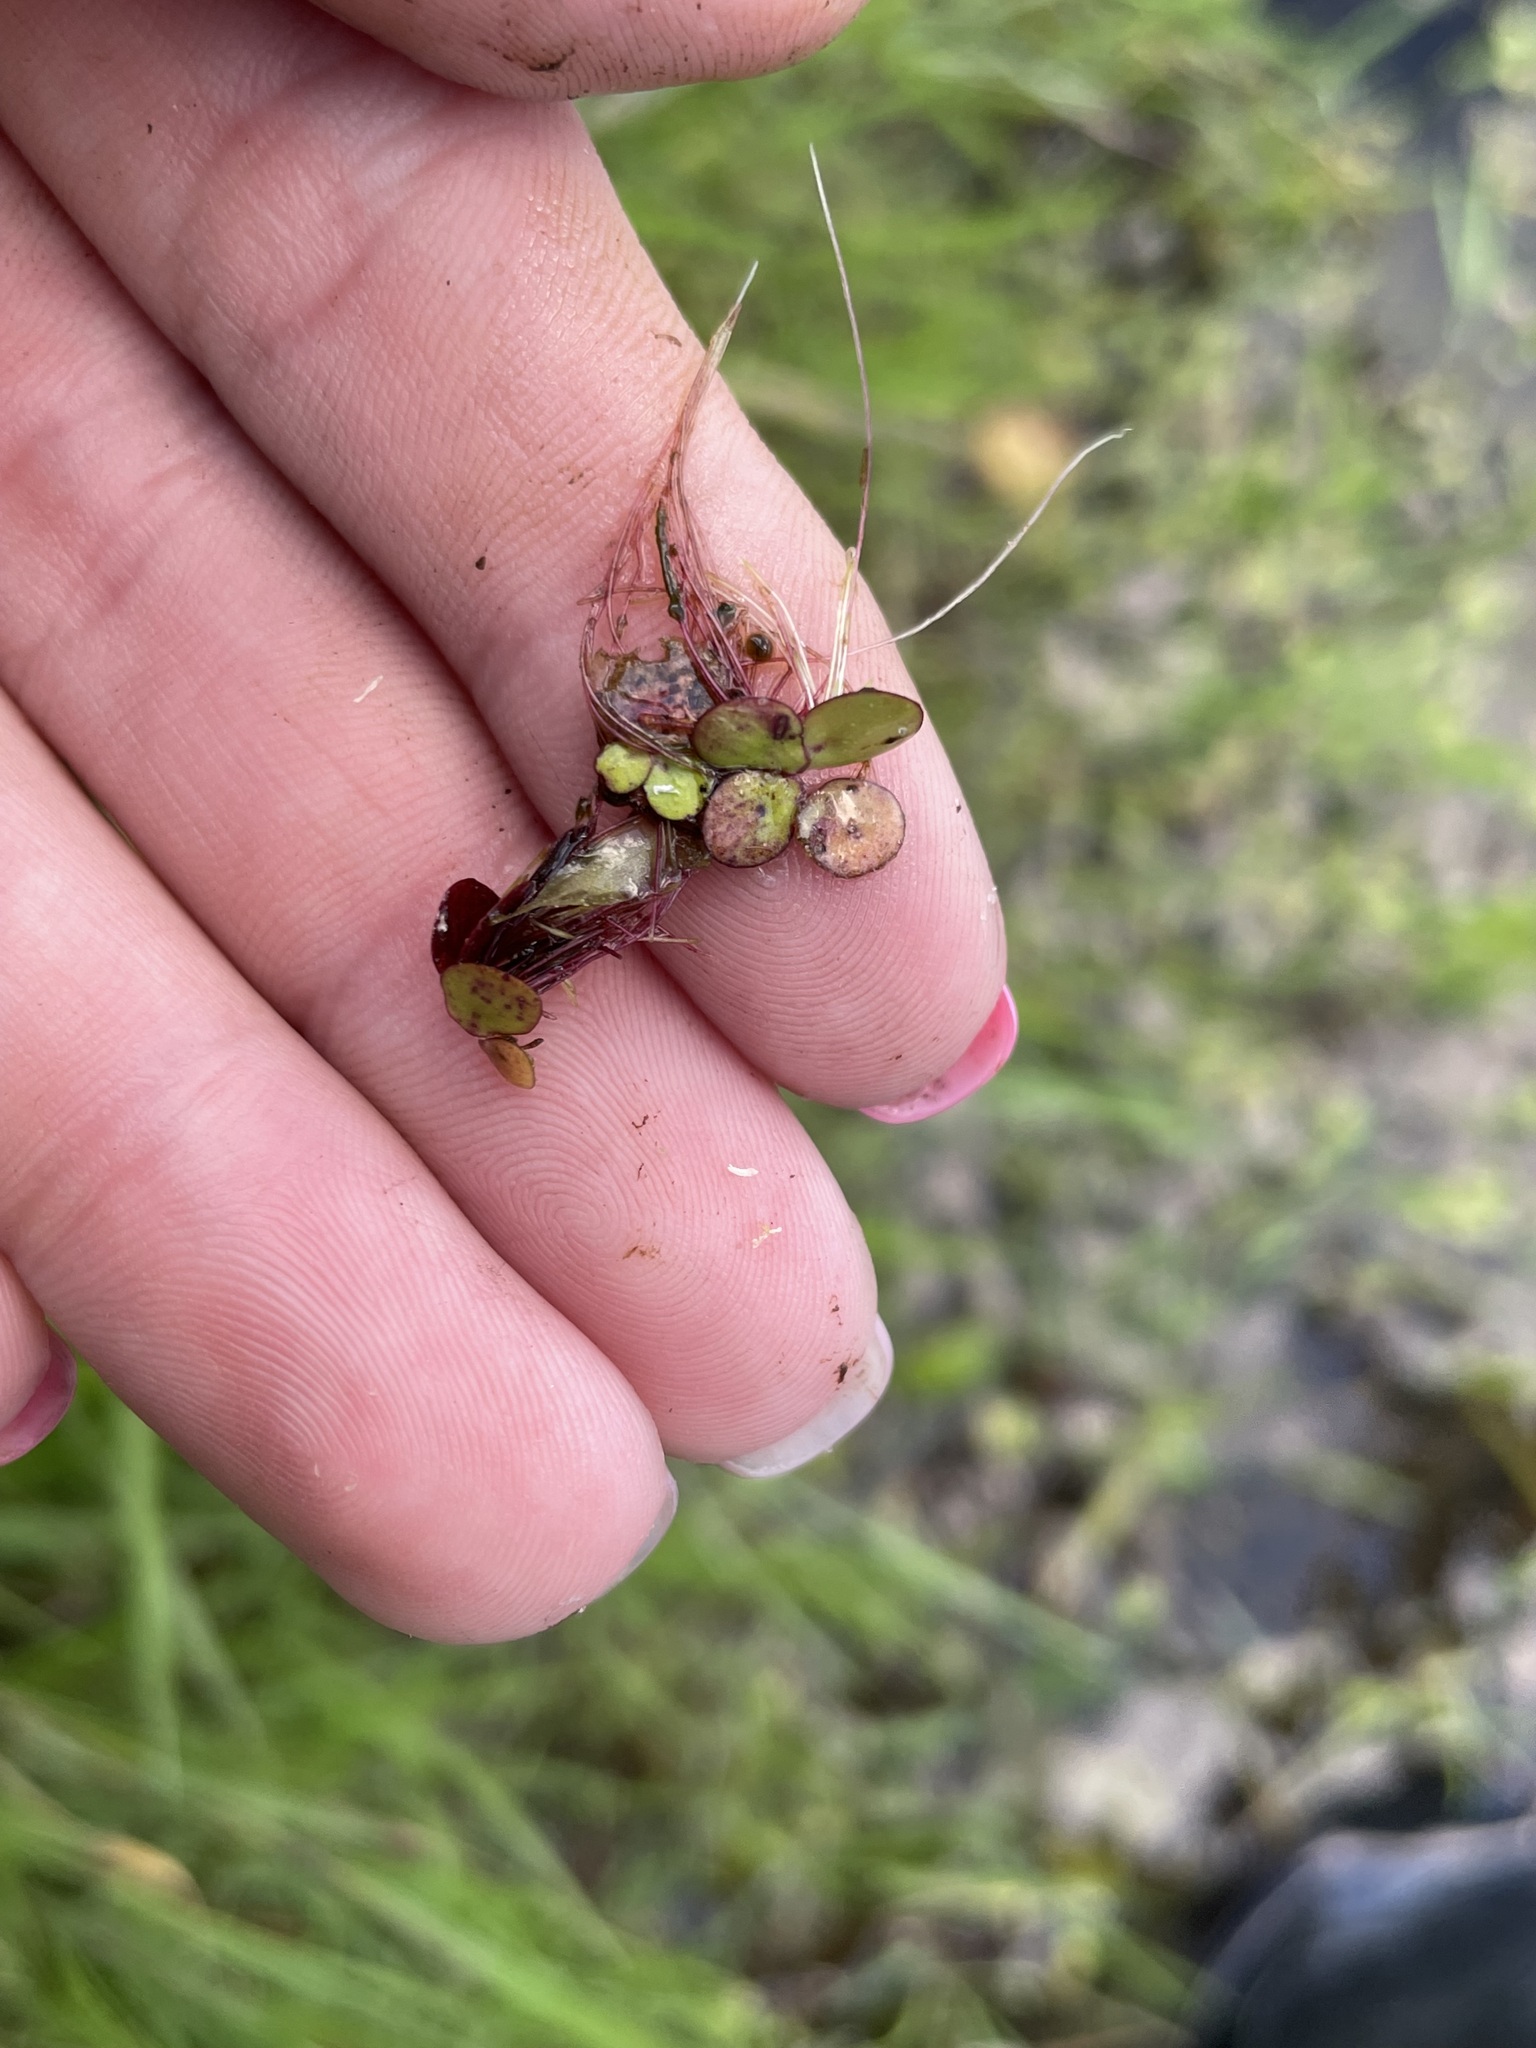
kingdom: Plantae
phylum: Tracheophyta
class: Liliopsida
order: Alismatales
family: Araceae
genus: Spirodela
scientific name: Spirodela polyrhiza
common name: Great duckweed
